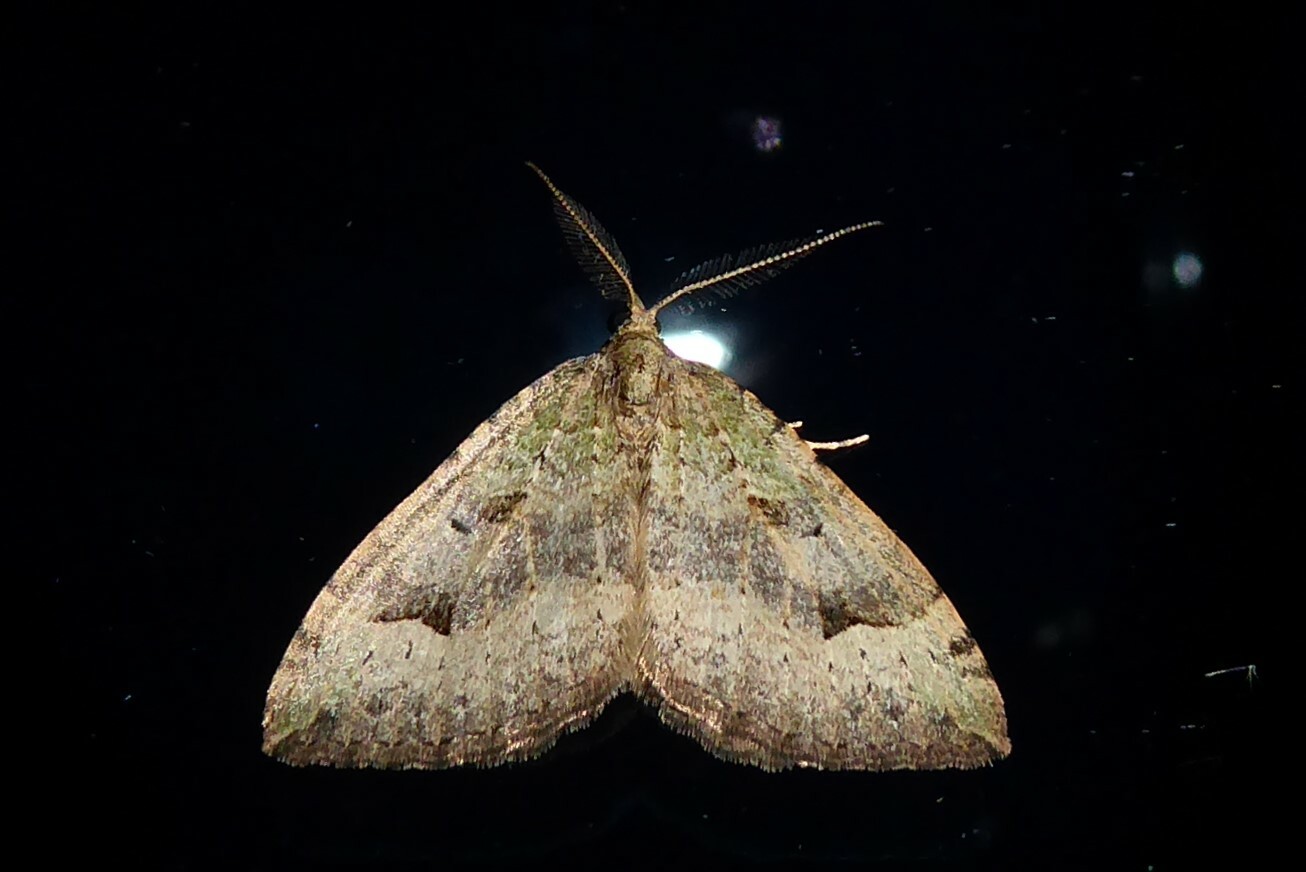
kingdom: Animalia
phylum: Arthropoda
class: Insecta
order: Lepidoptera
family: Geometridae
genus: Epyaxa
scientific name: Epyaxa rosearia
